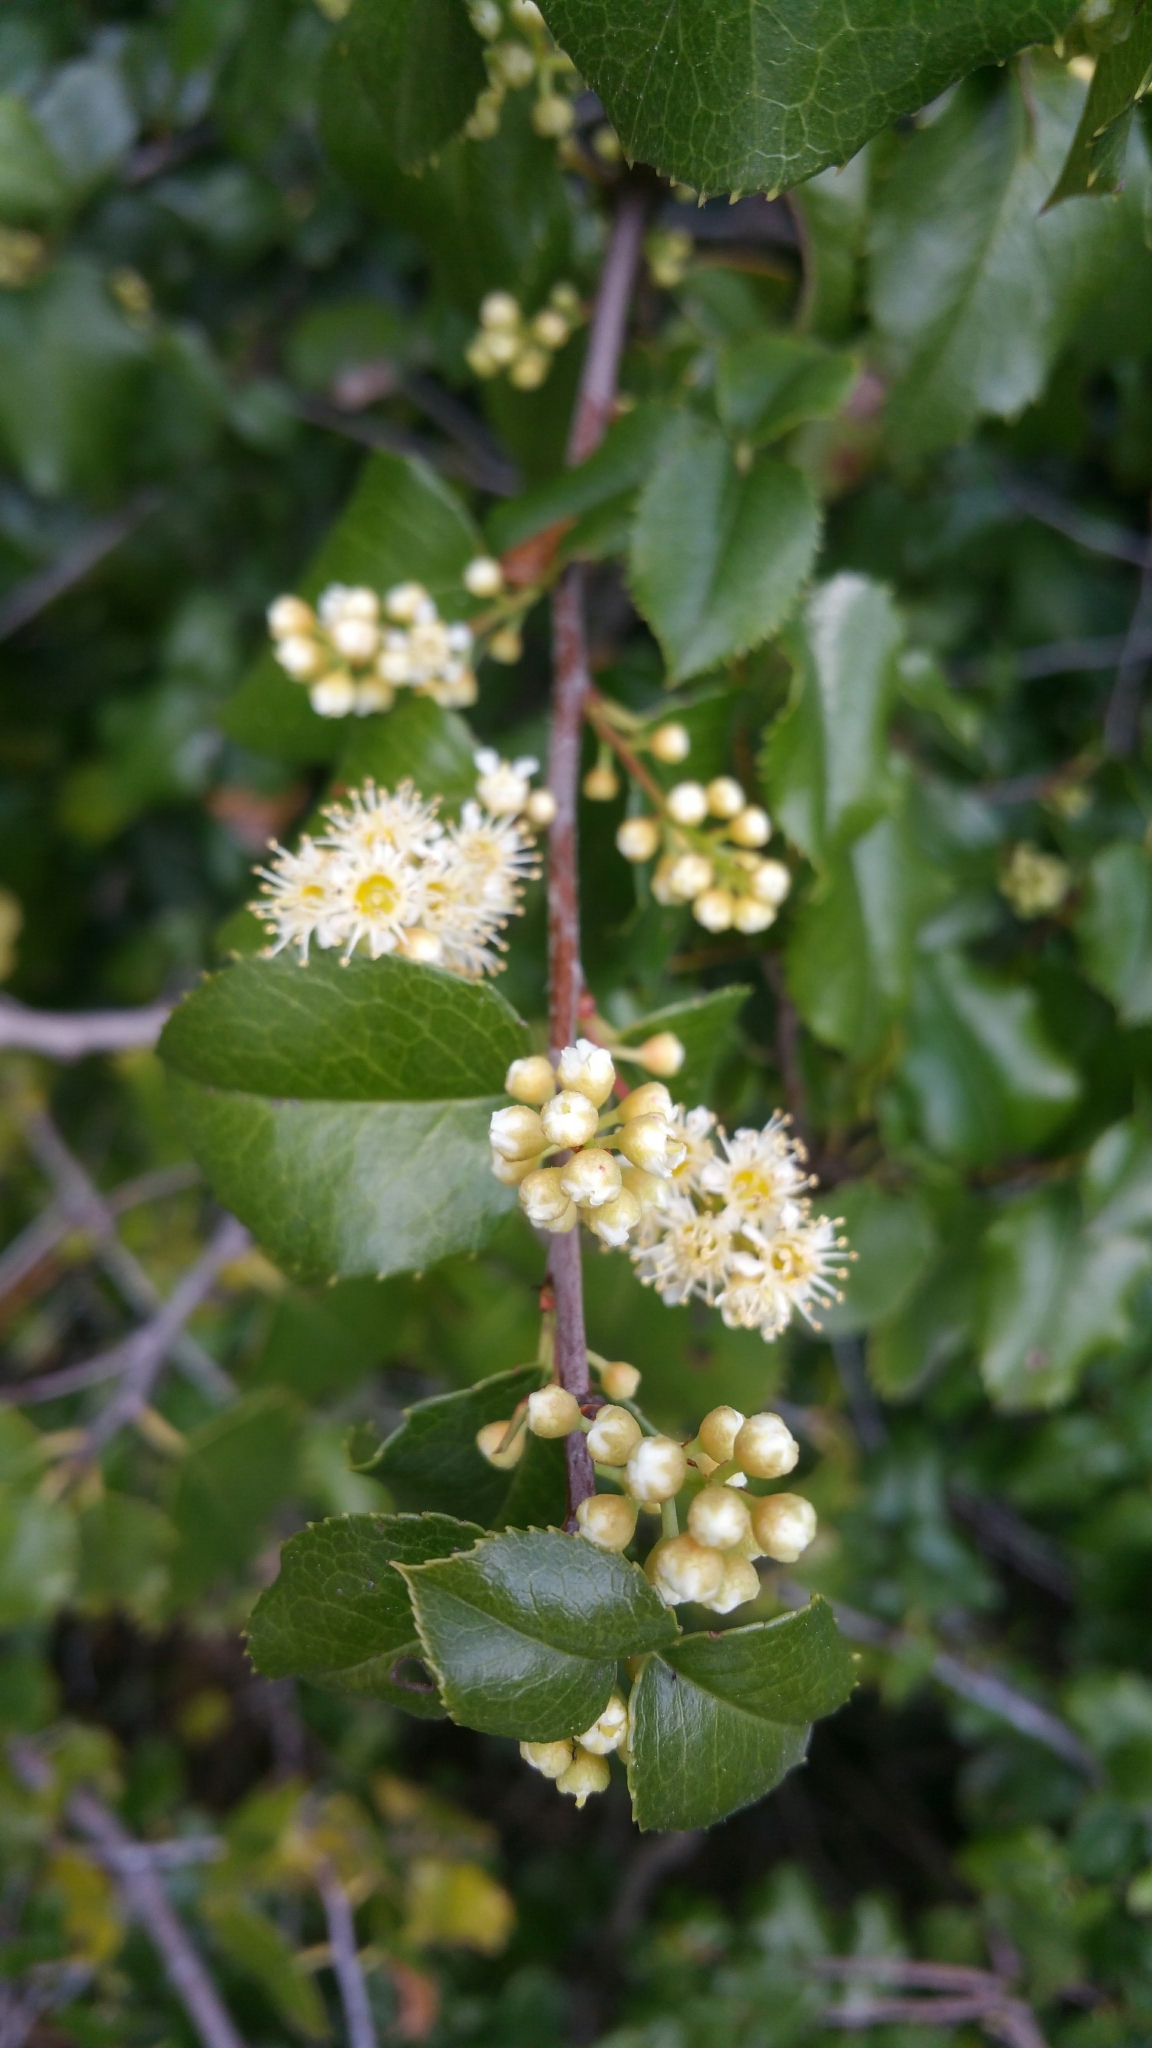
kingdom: Plantae
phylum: Tracheophyta
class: Magnoliopsida
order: Rosales
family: Rosaceae
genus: Prunus
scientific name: Prunus ilicifolia
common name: Hollyleaf cherry
